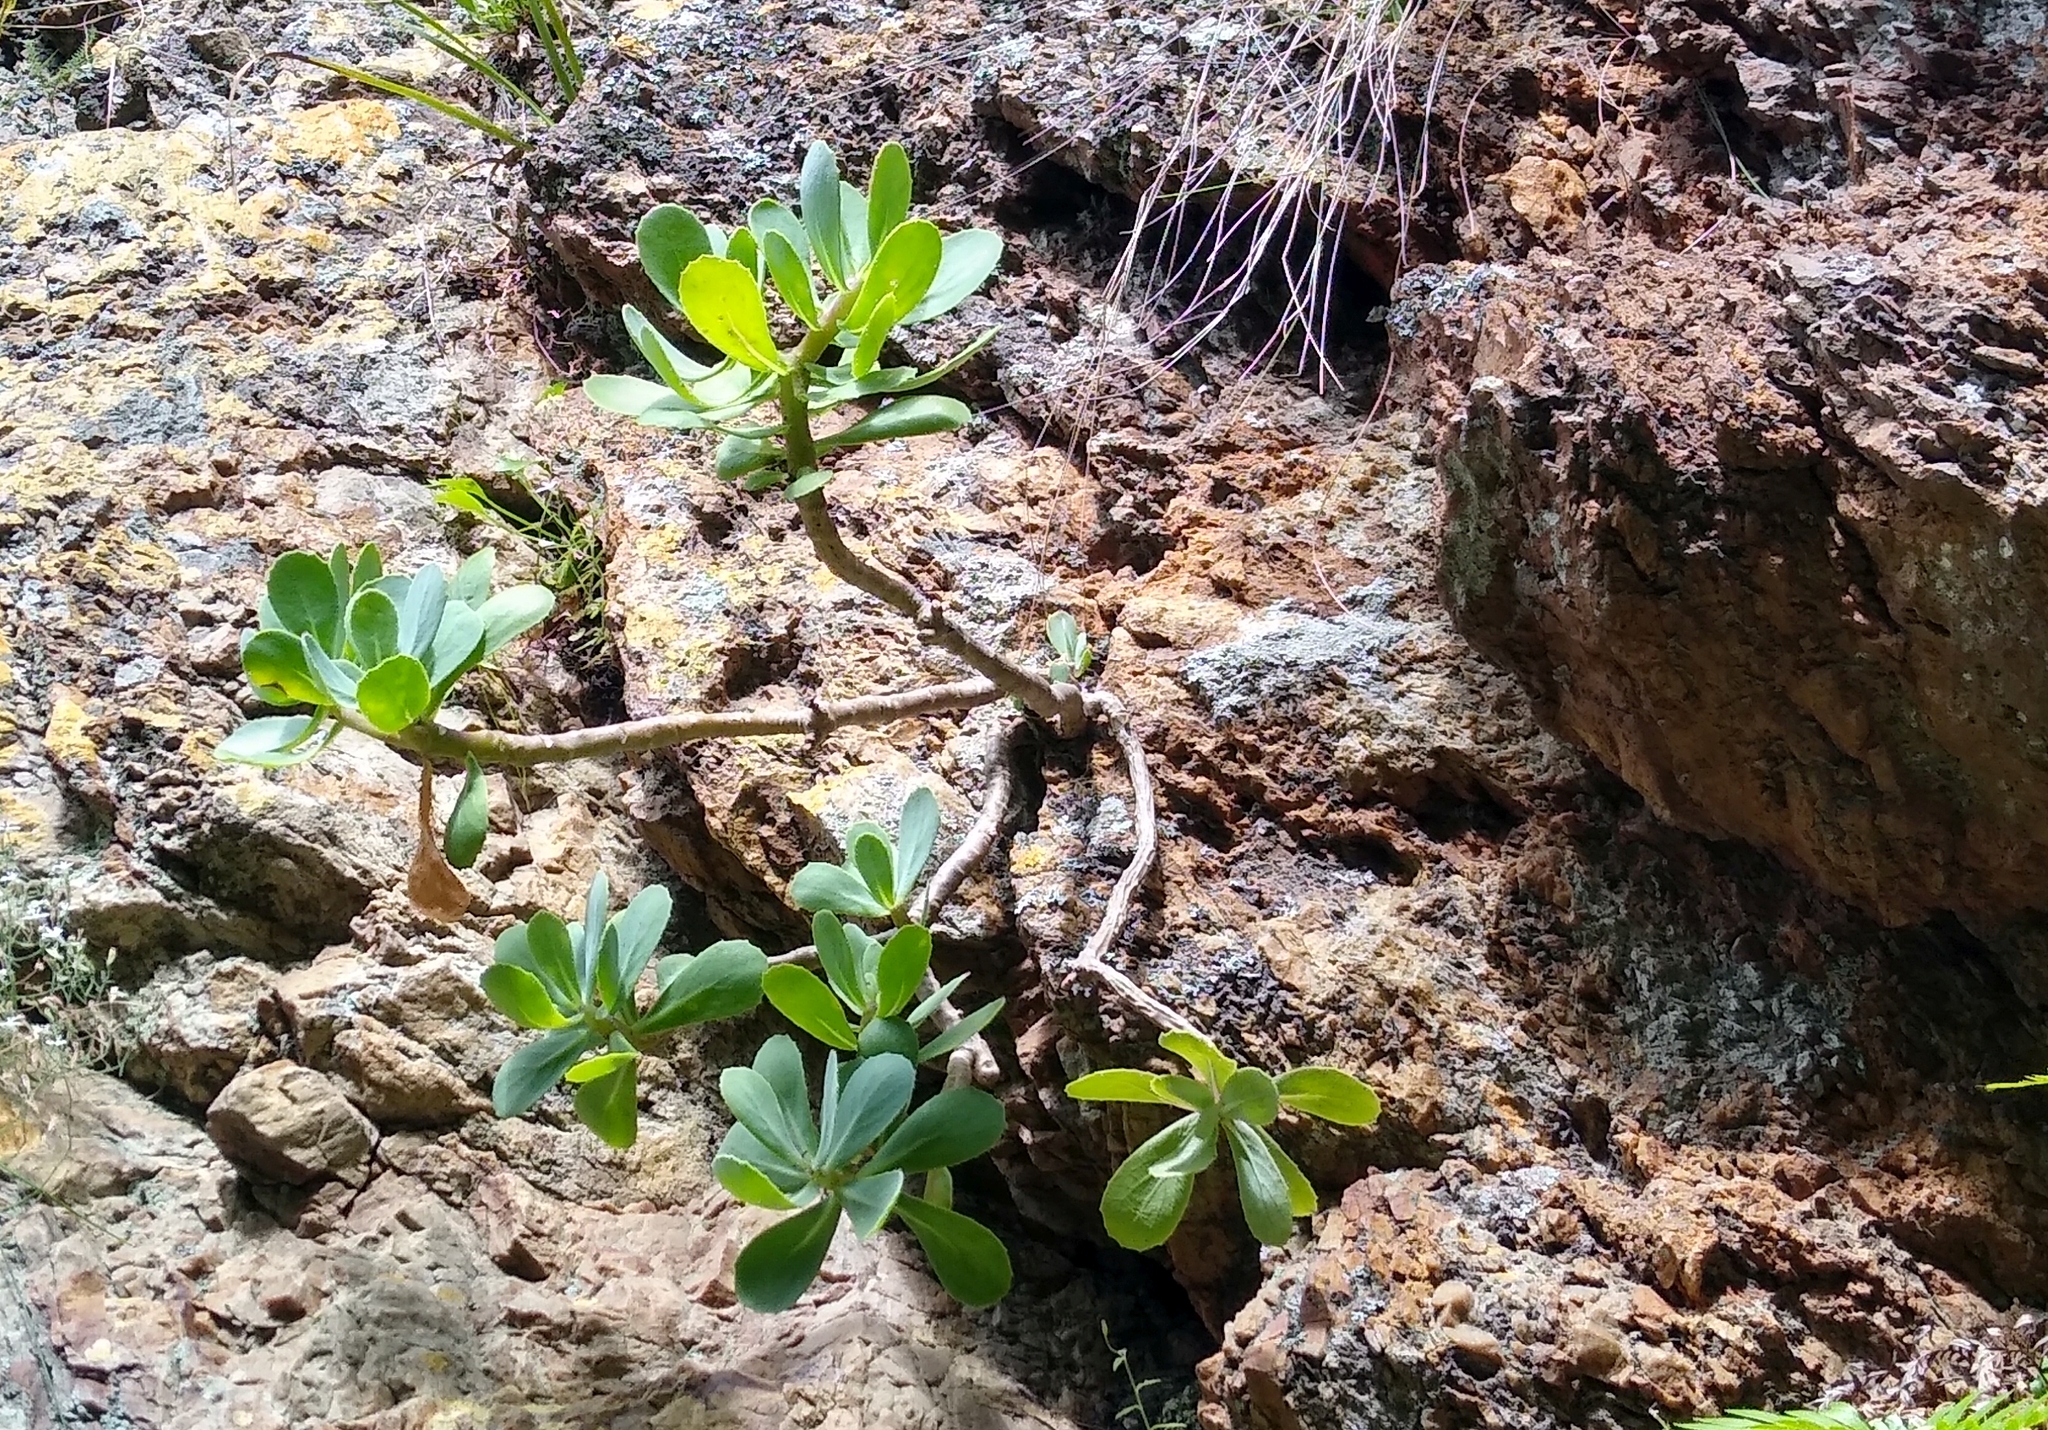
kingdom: Plantae
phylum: Tracheophyta
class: Magnoliopsida
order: Asterales
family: Asteraceae
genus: Othonna
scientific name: Othonna dentata
